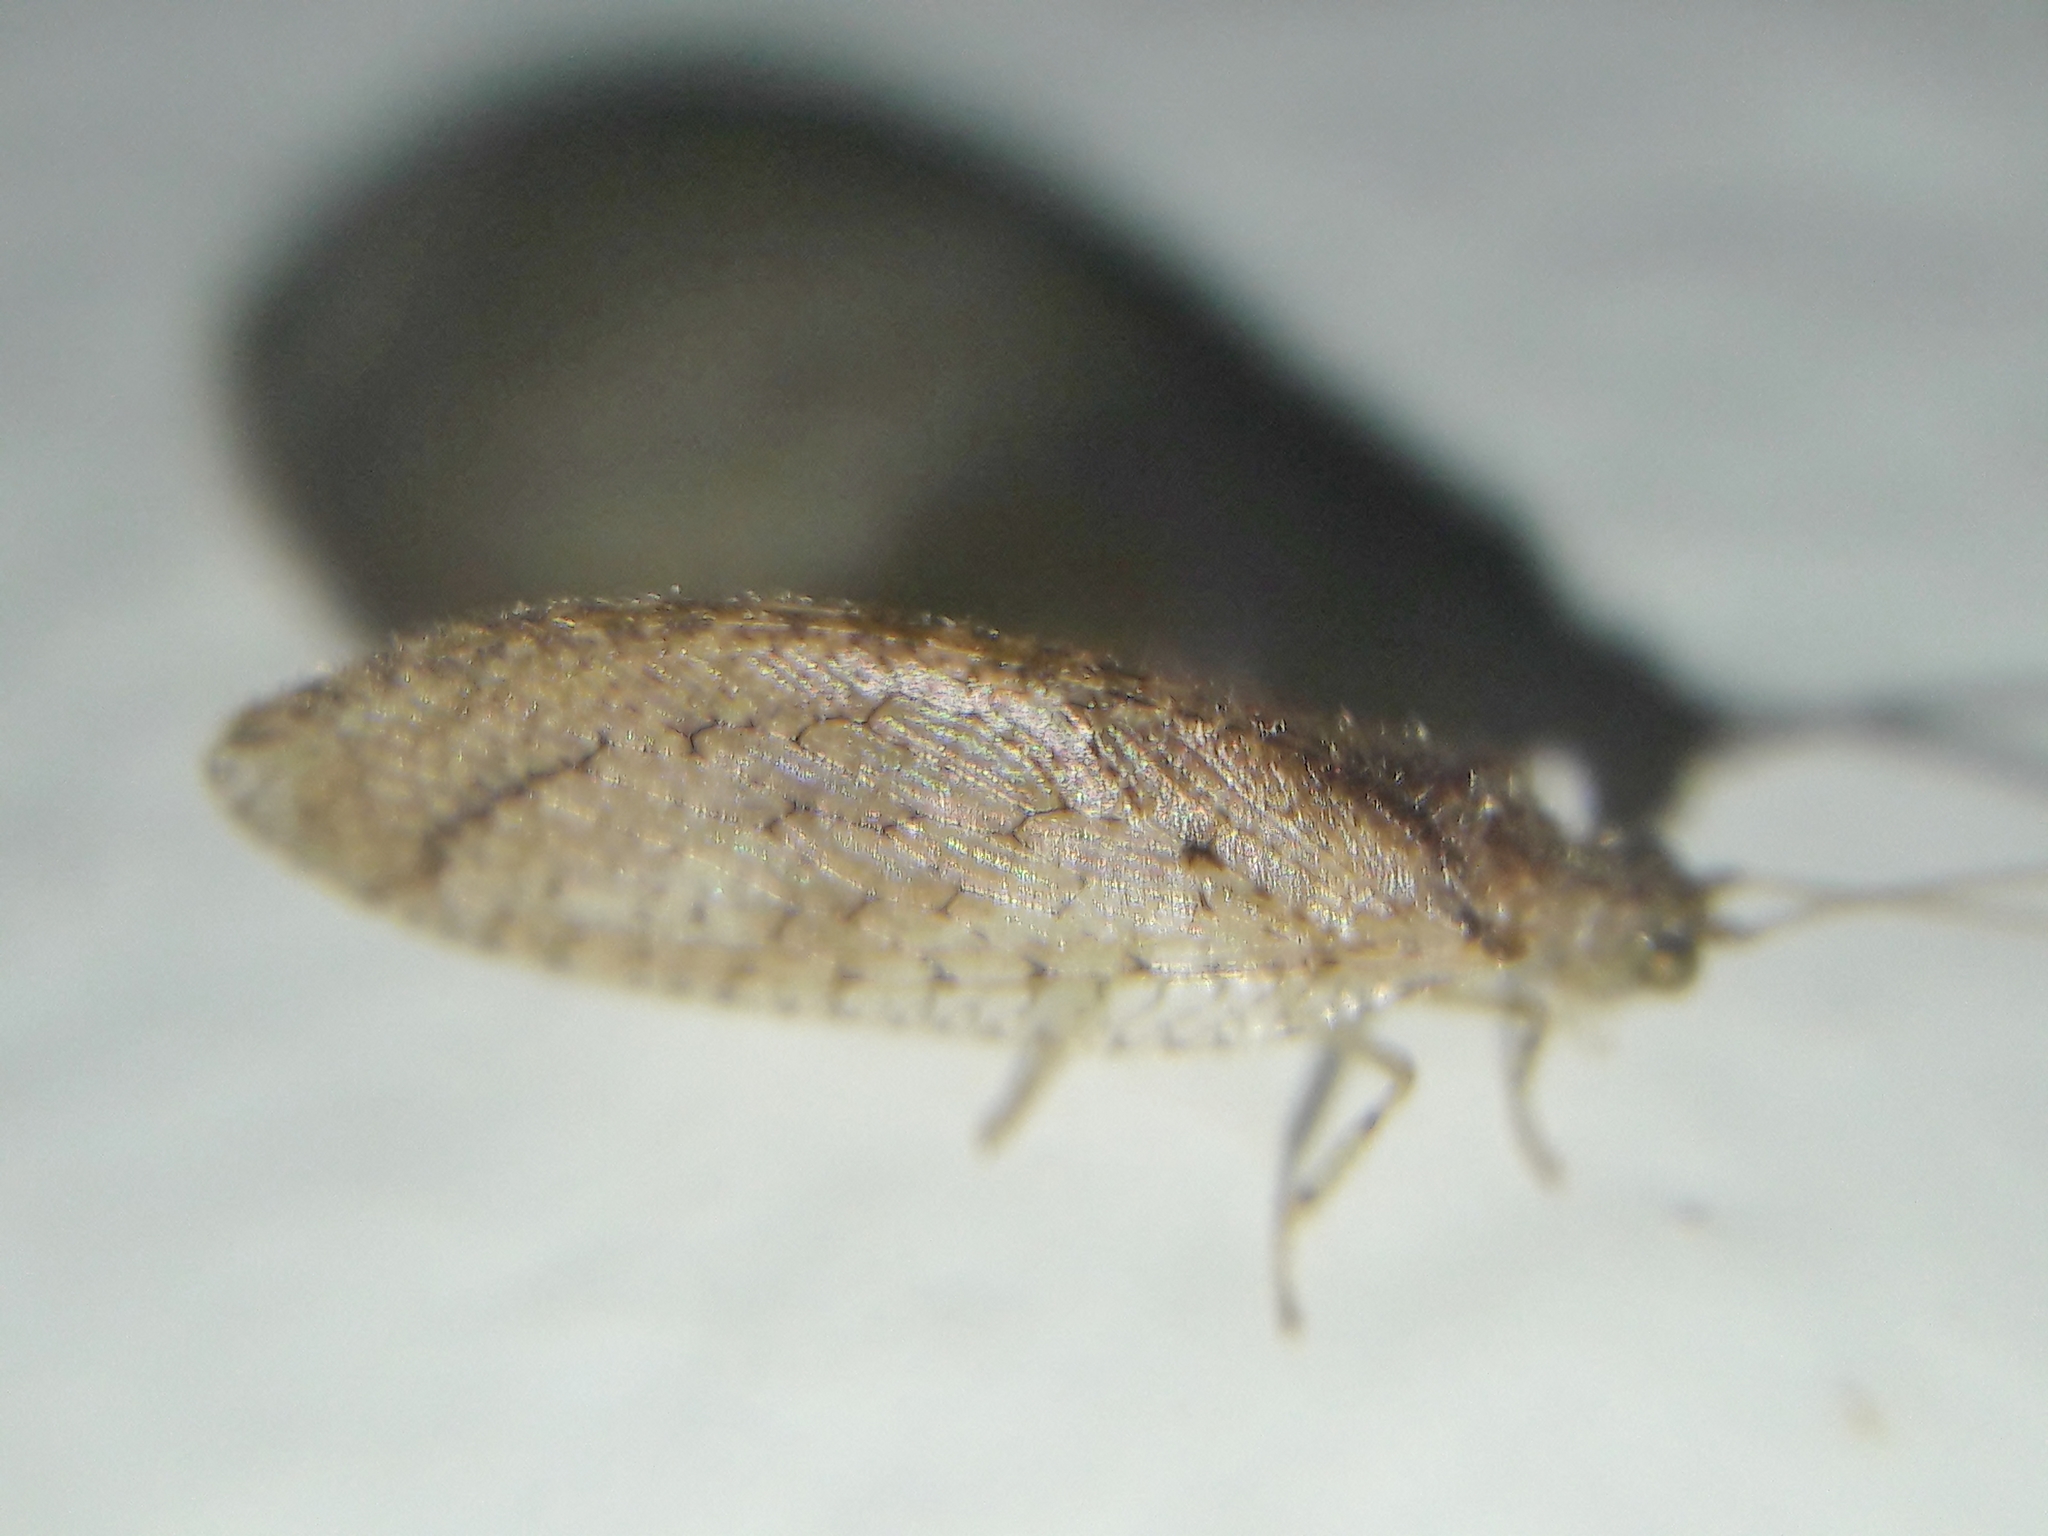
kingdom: Animalia
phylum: Arthropoda
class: Insecta
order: Neuroptera
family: Hemerobiidae
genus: Nusalala
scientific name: Nusalala tessellata
